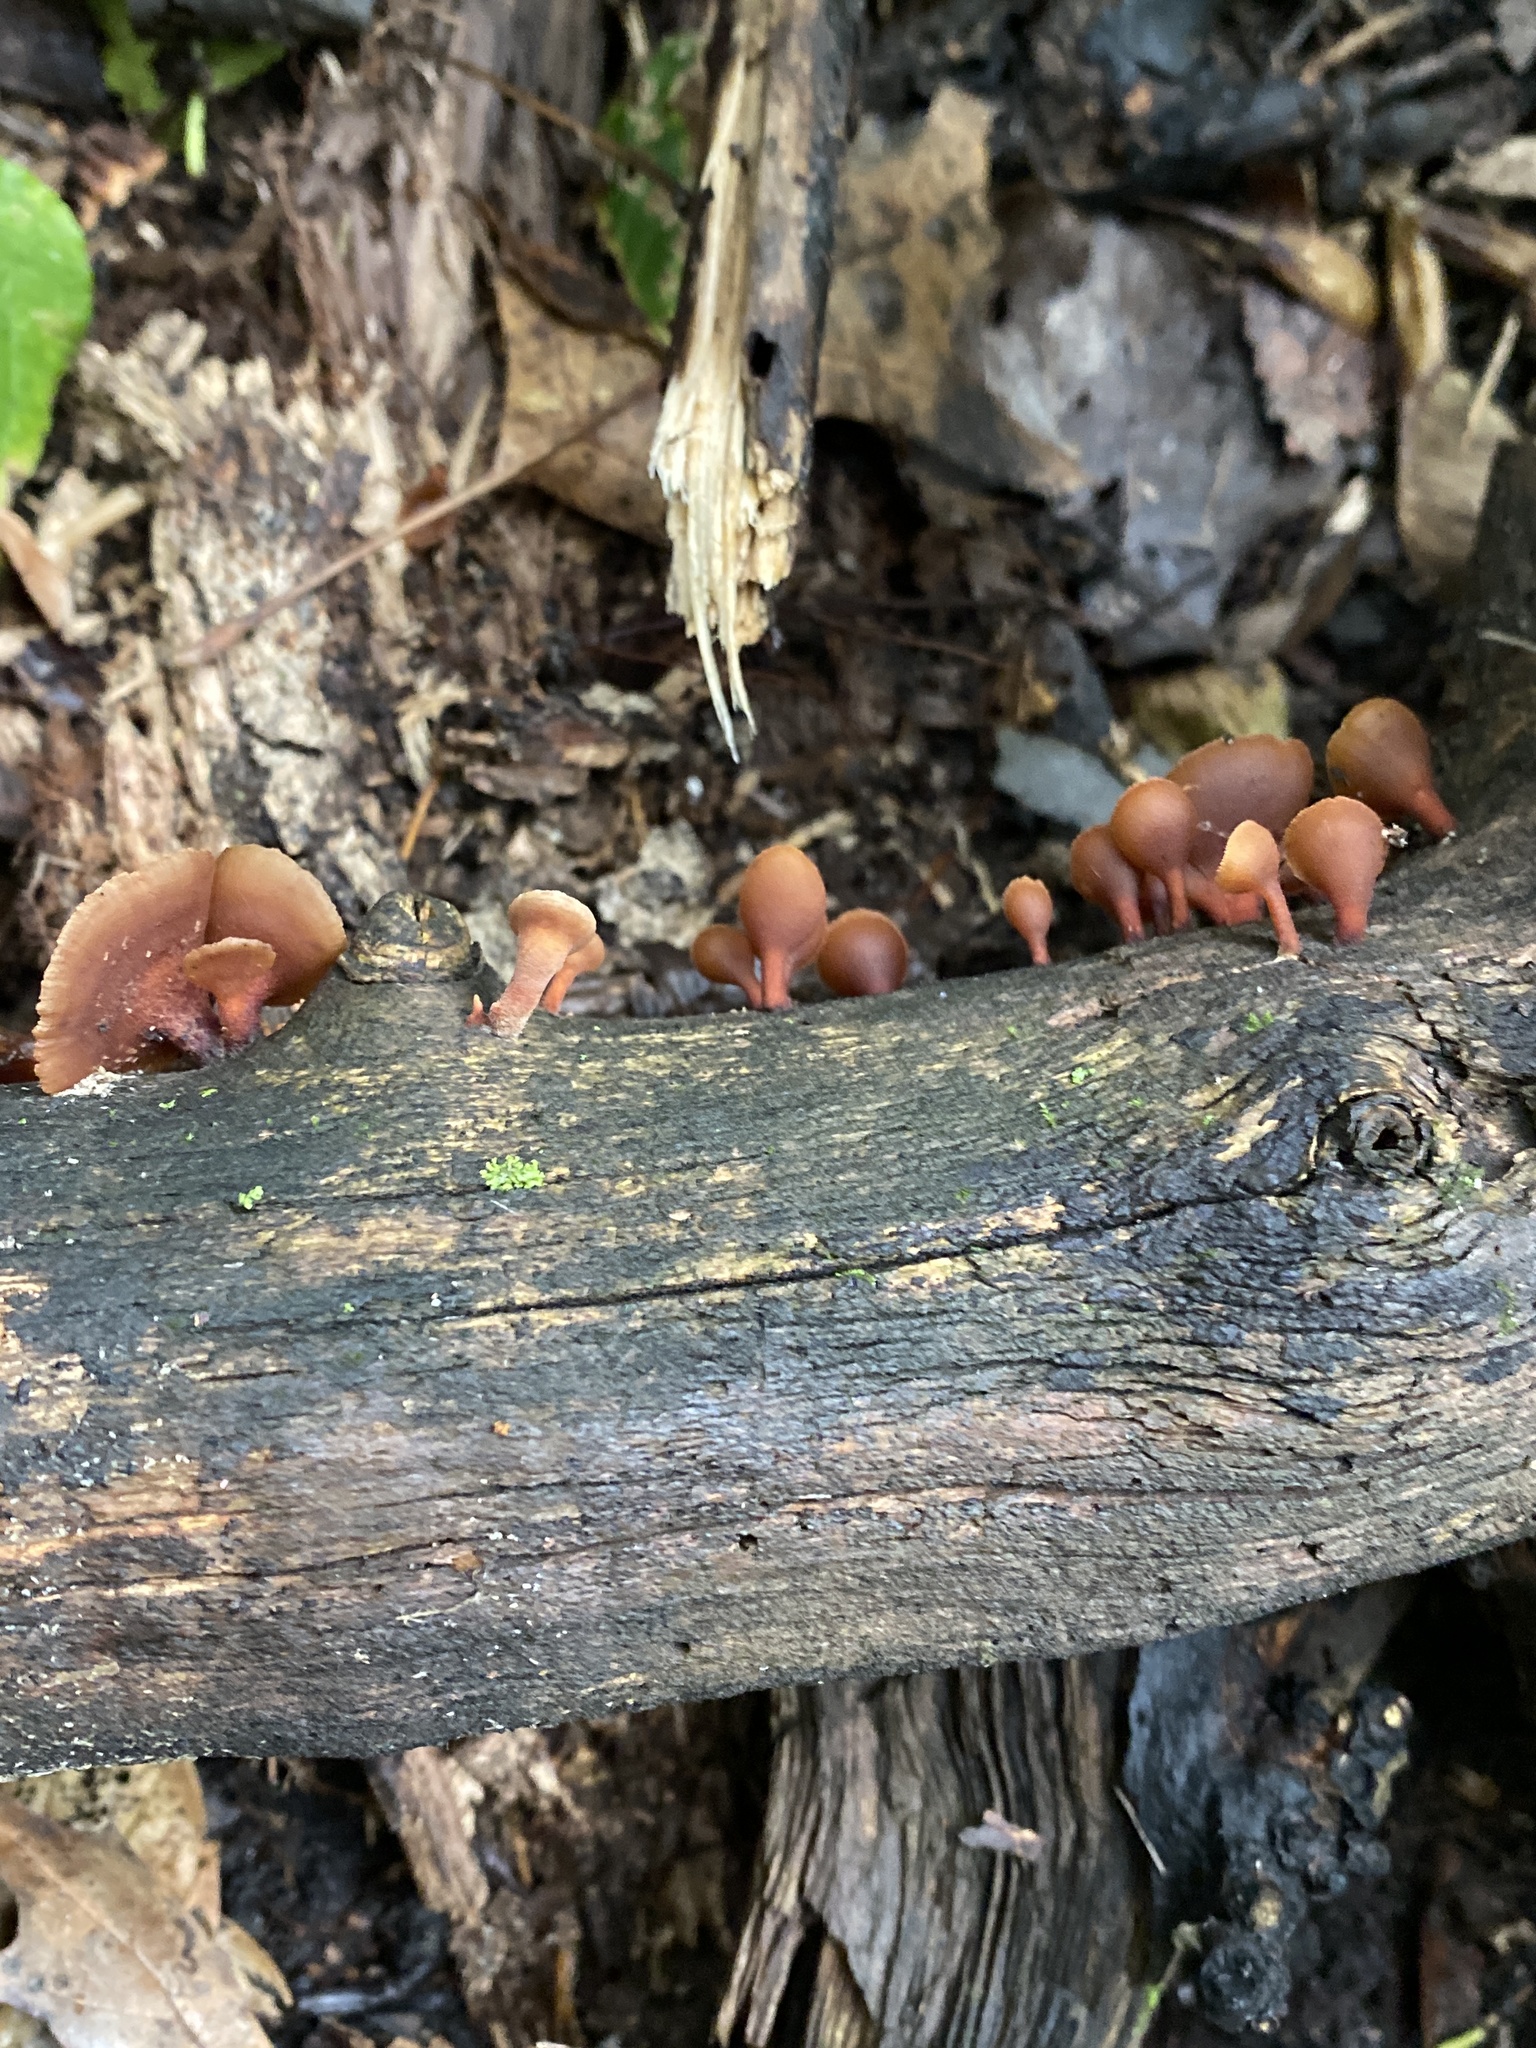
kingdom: Fungi
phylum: Basidiomycota
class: Dacrymycetes
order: Dacrymycetales
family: Dacrymycetaceae
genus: Dacryopinax
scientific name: Dacryopinax elegans
